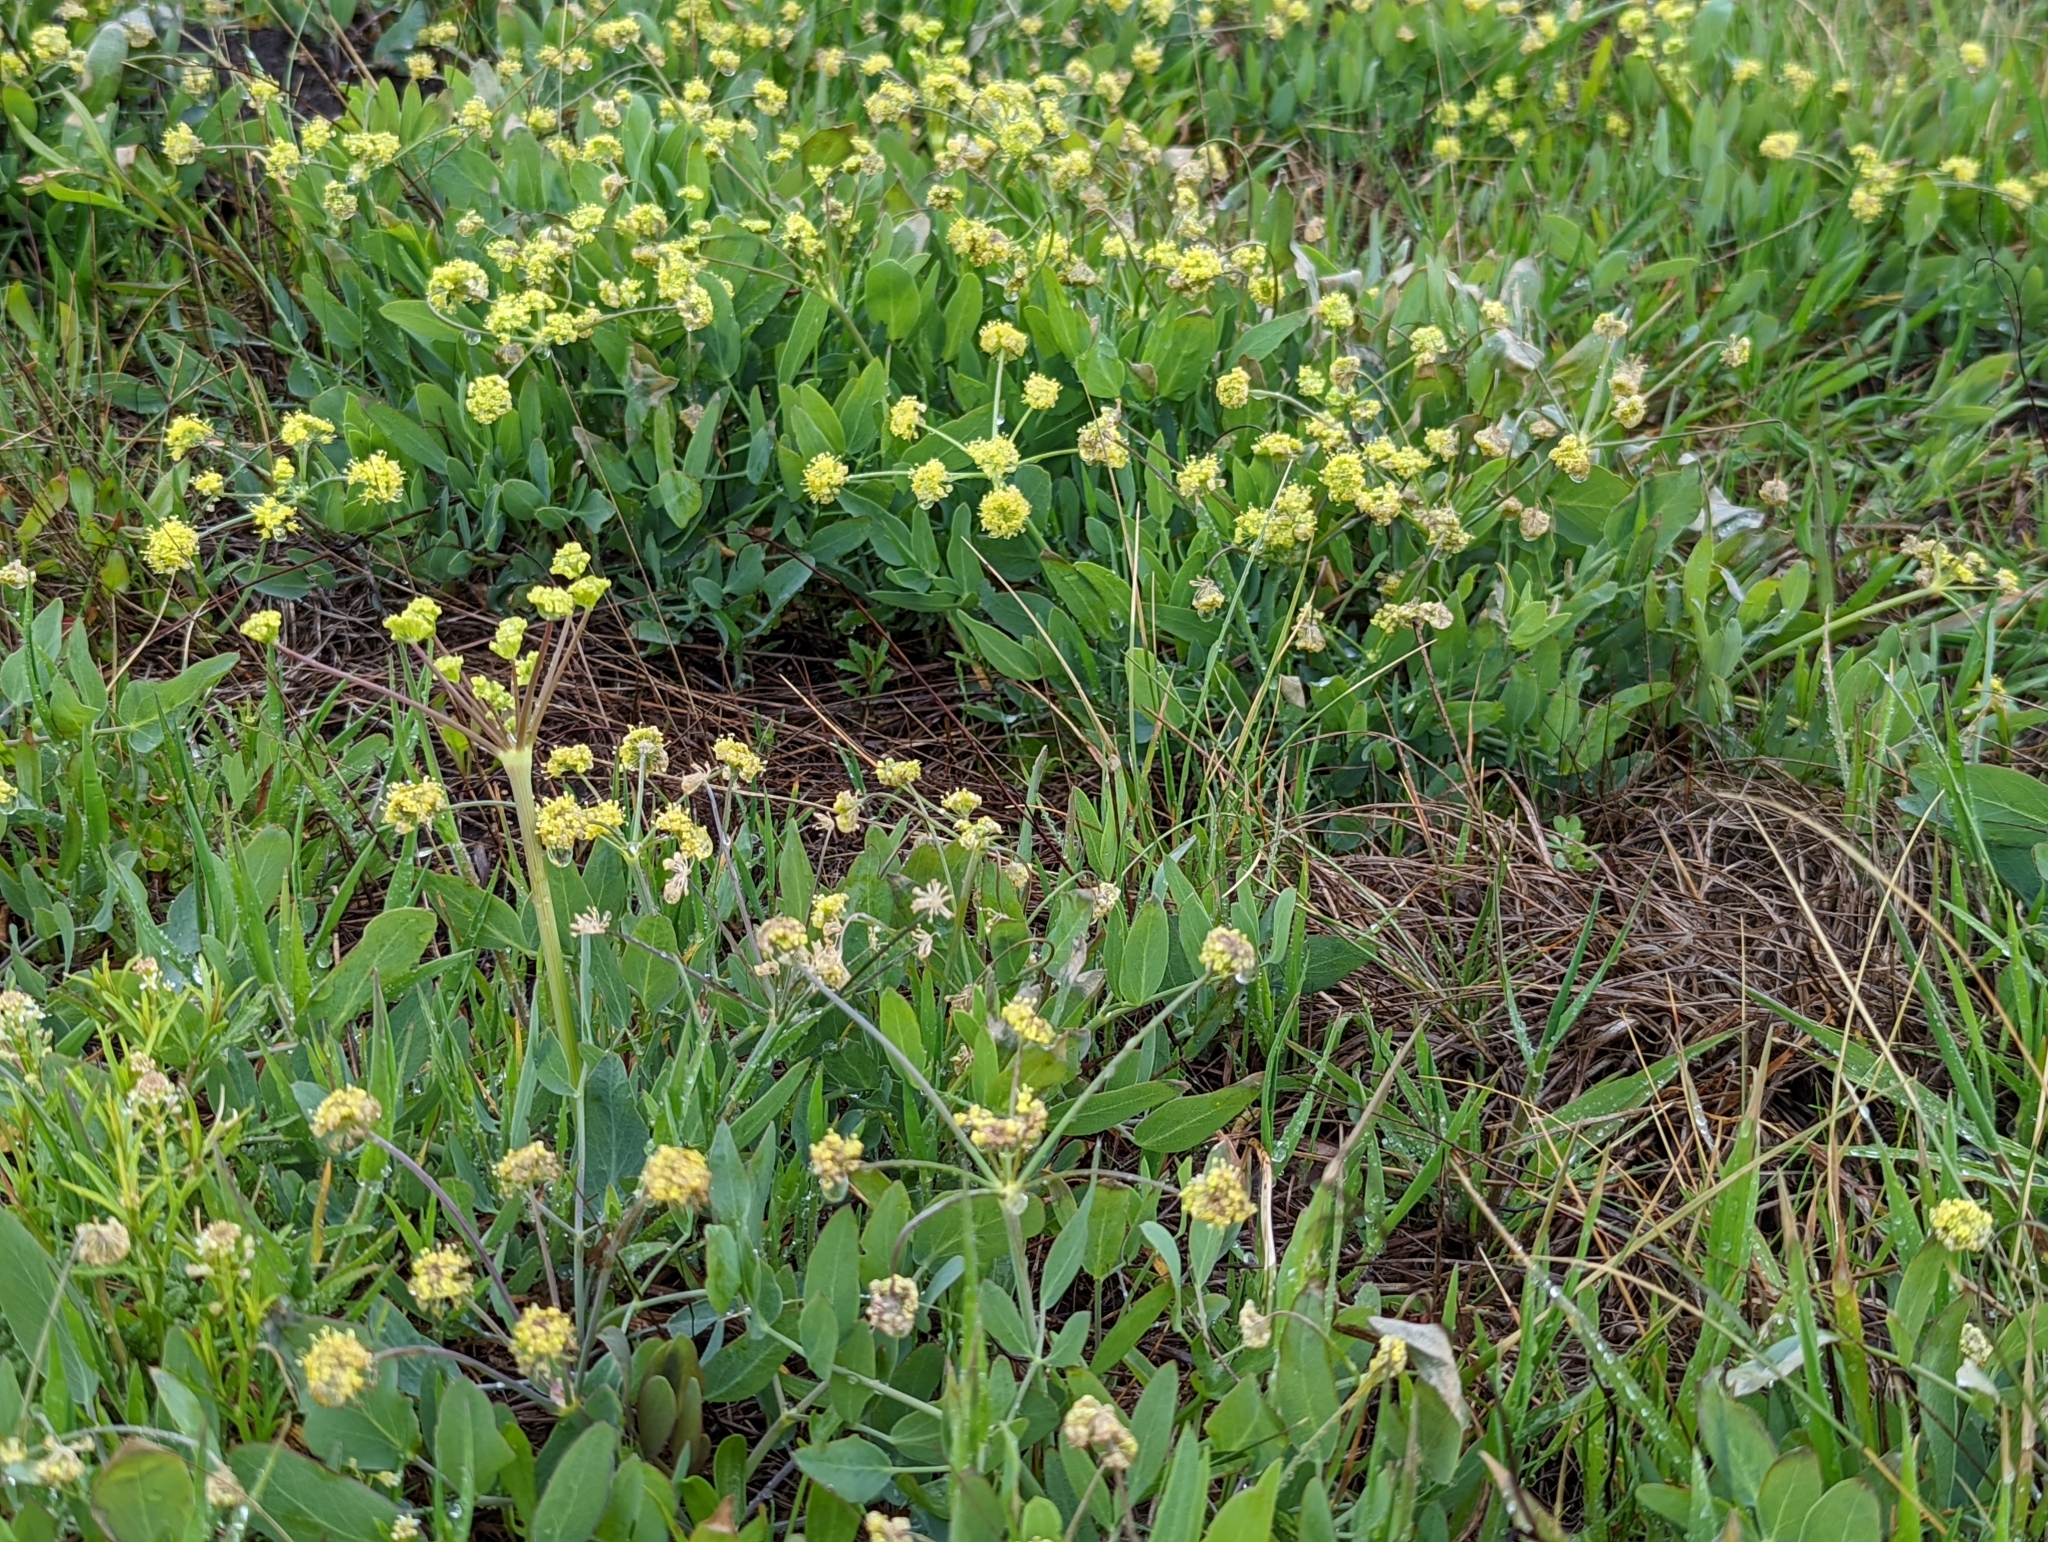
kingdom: Plantae
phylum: Tracheophyta
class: Magnoliopsida
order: Apiales
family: Apiaceae
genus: Lomatium
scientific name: Lomatium nudicaule
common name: Pestle lomatium
